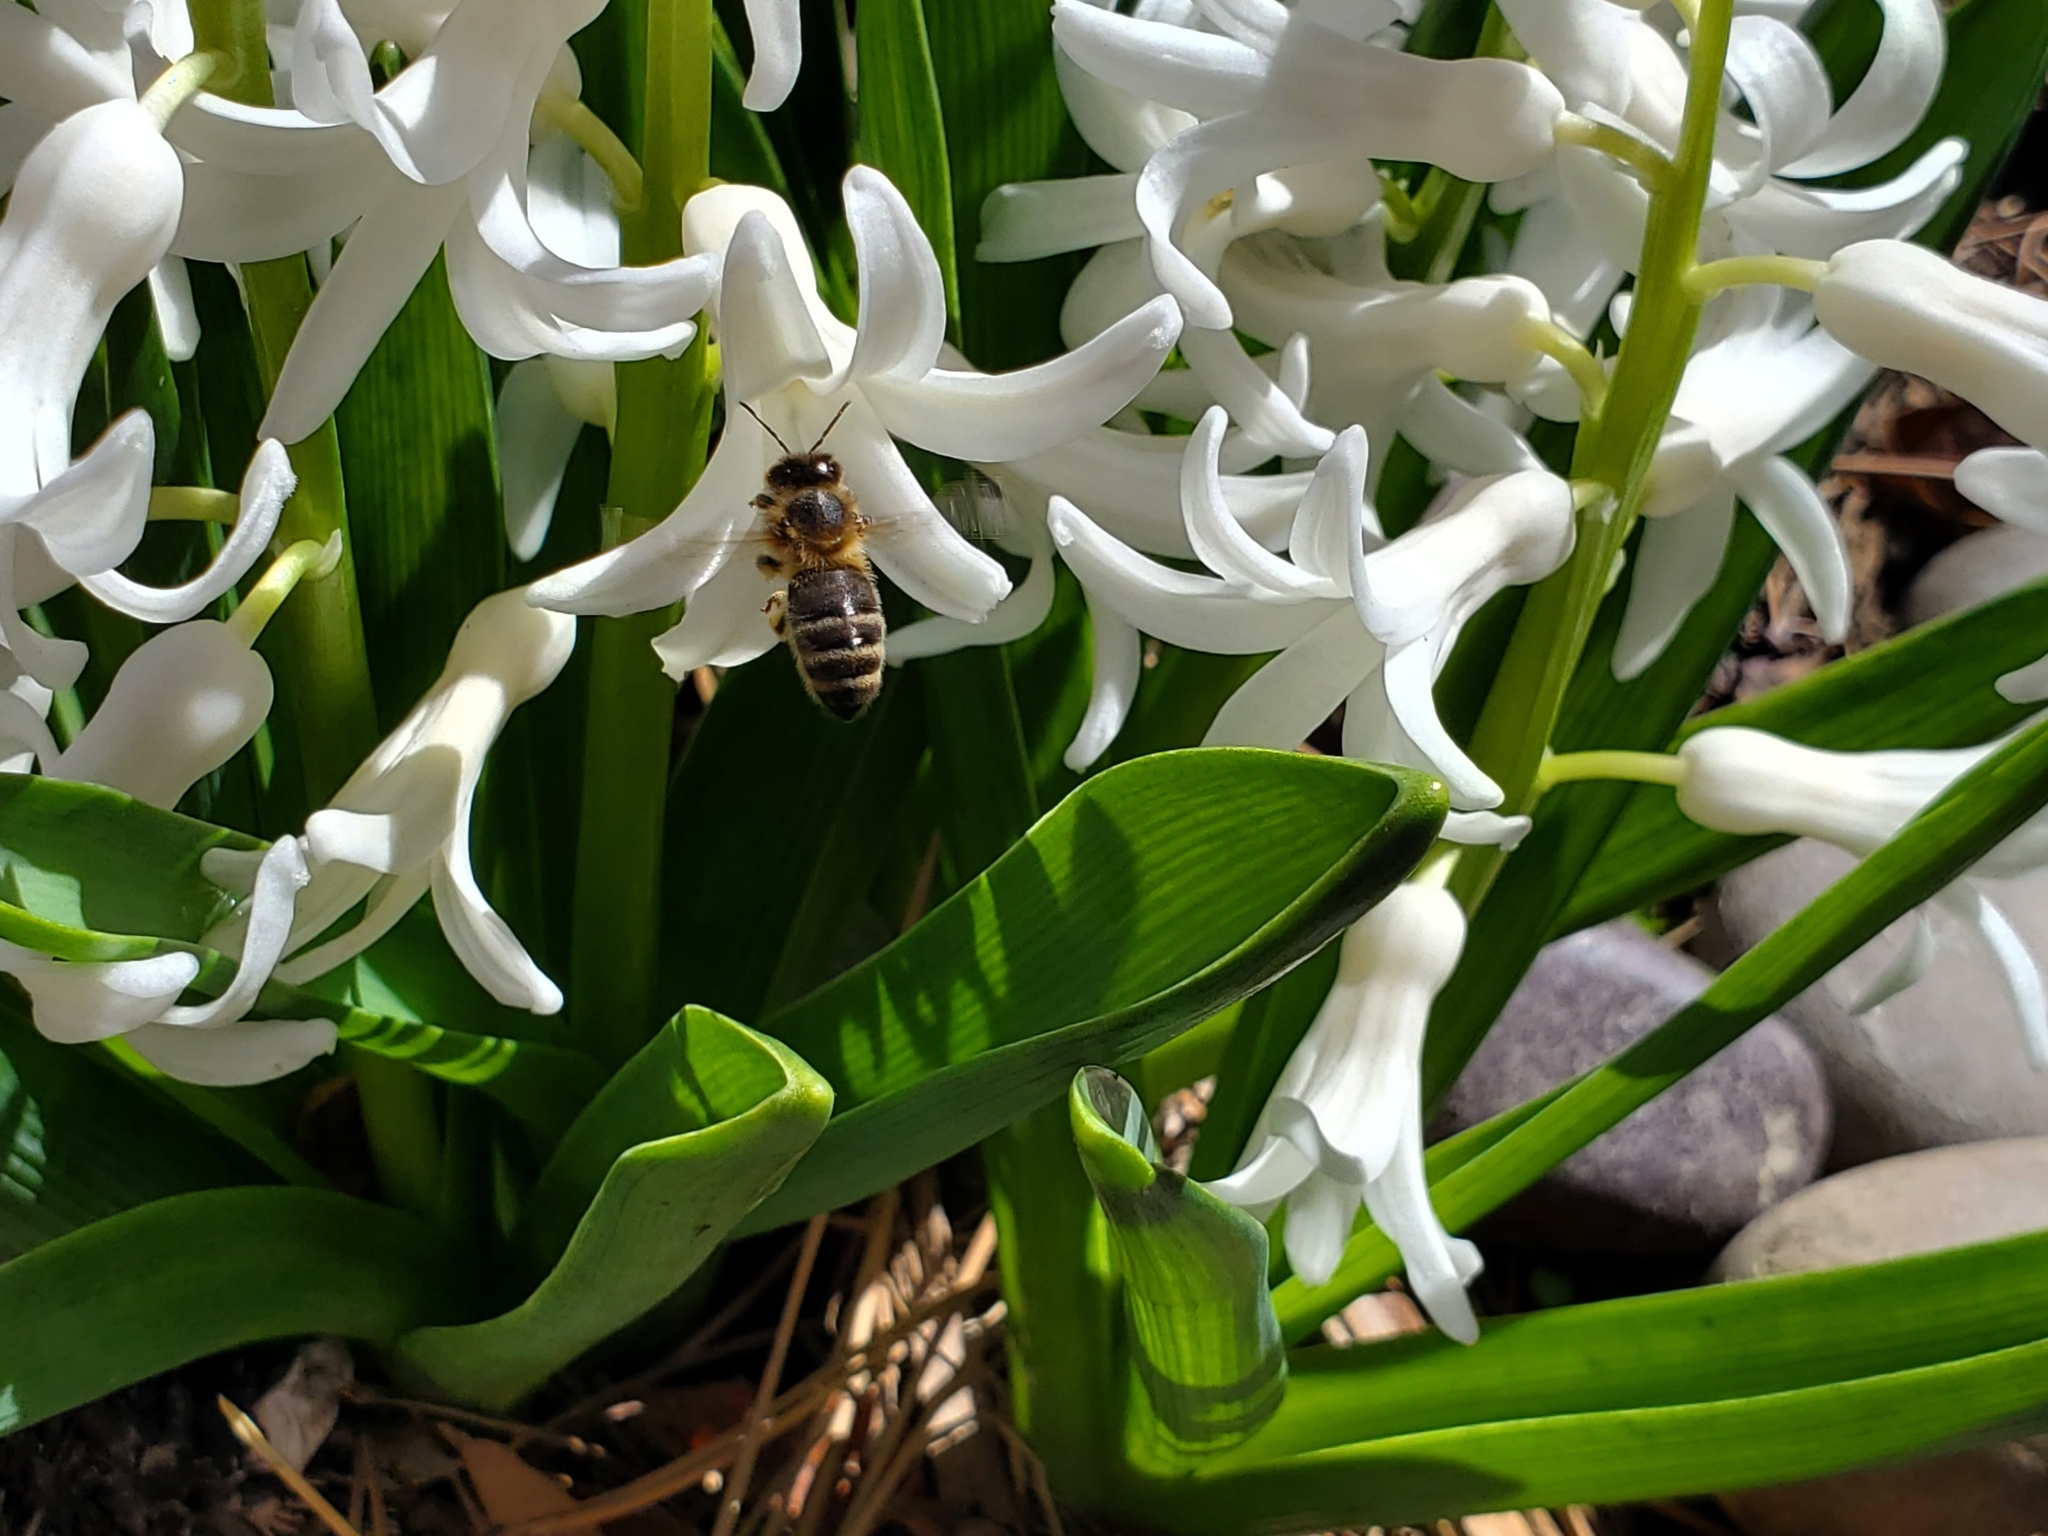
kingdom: Animalia
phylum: Arthropoda
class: Insecta
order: Hymenoptera
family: Apidae
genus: Apis
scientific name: Apis mellifera
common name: Honey bee
